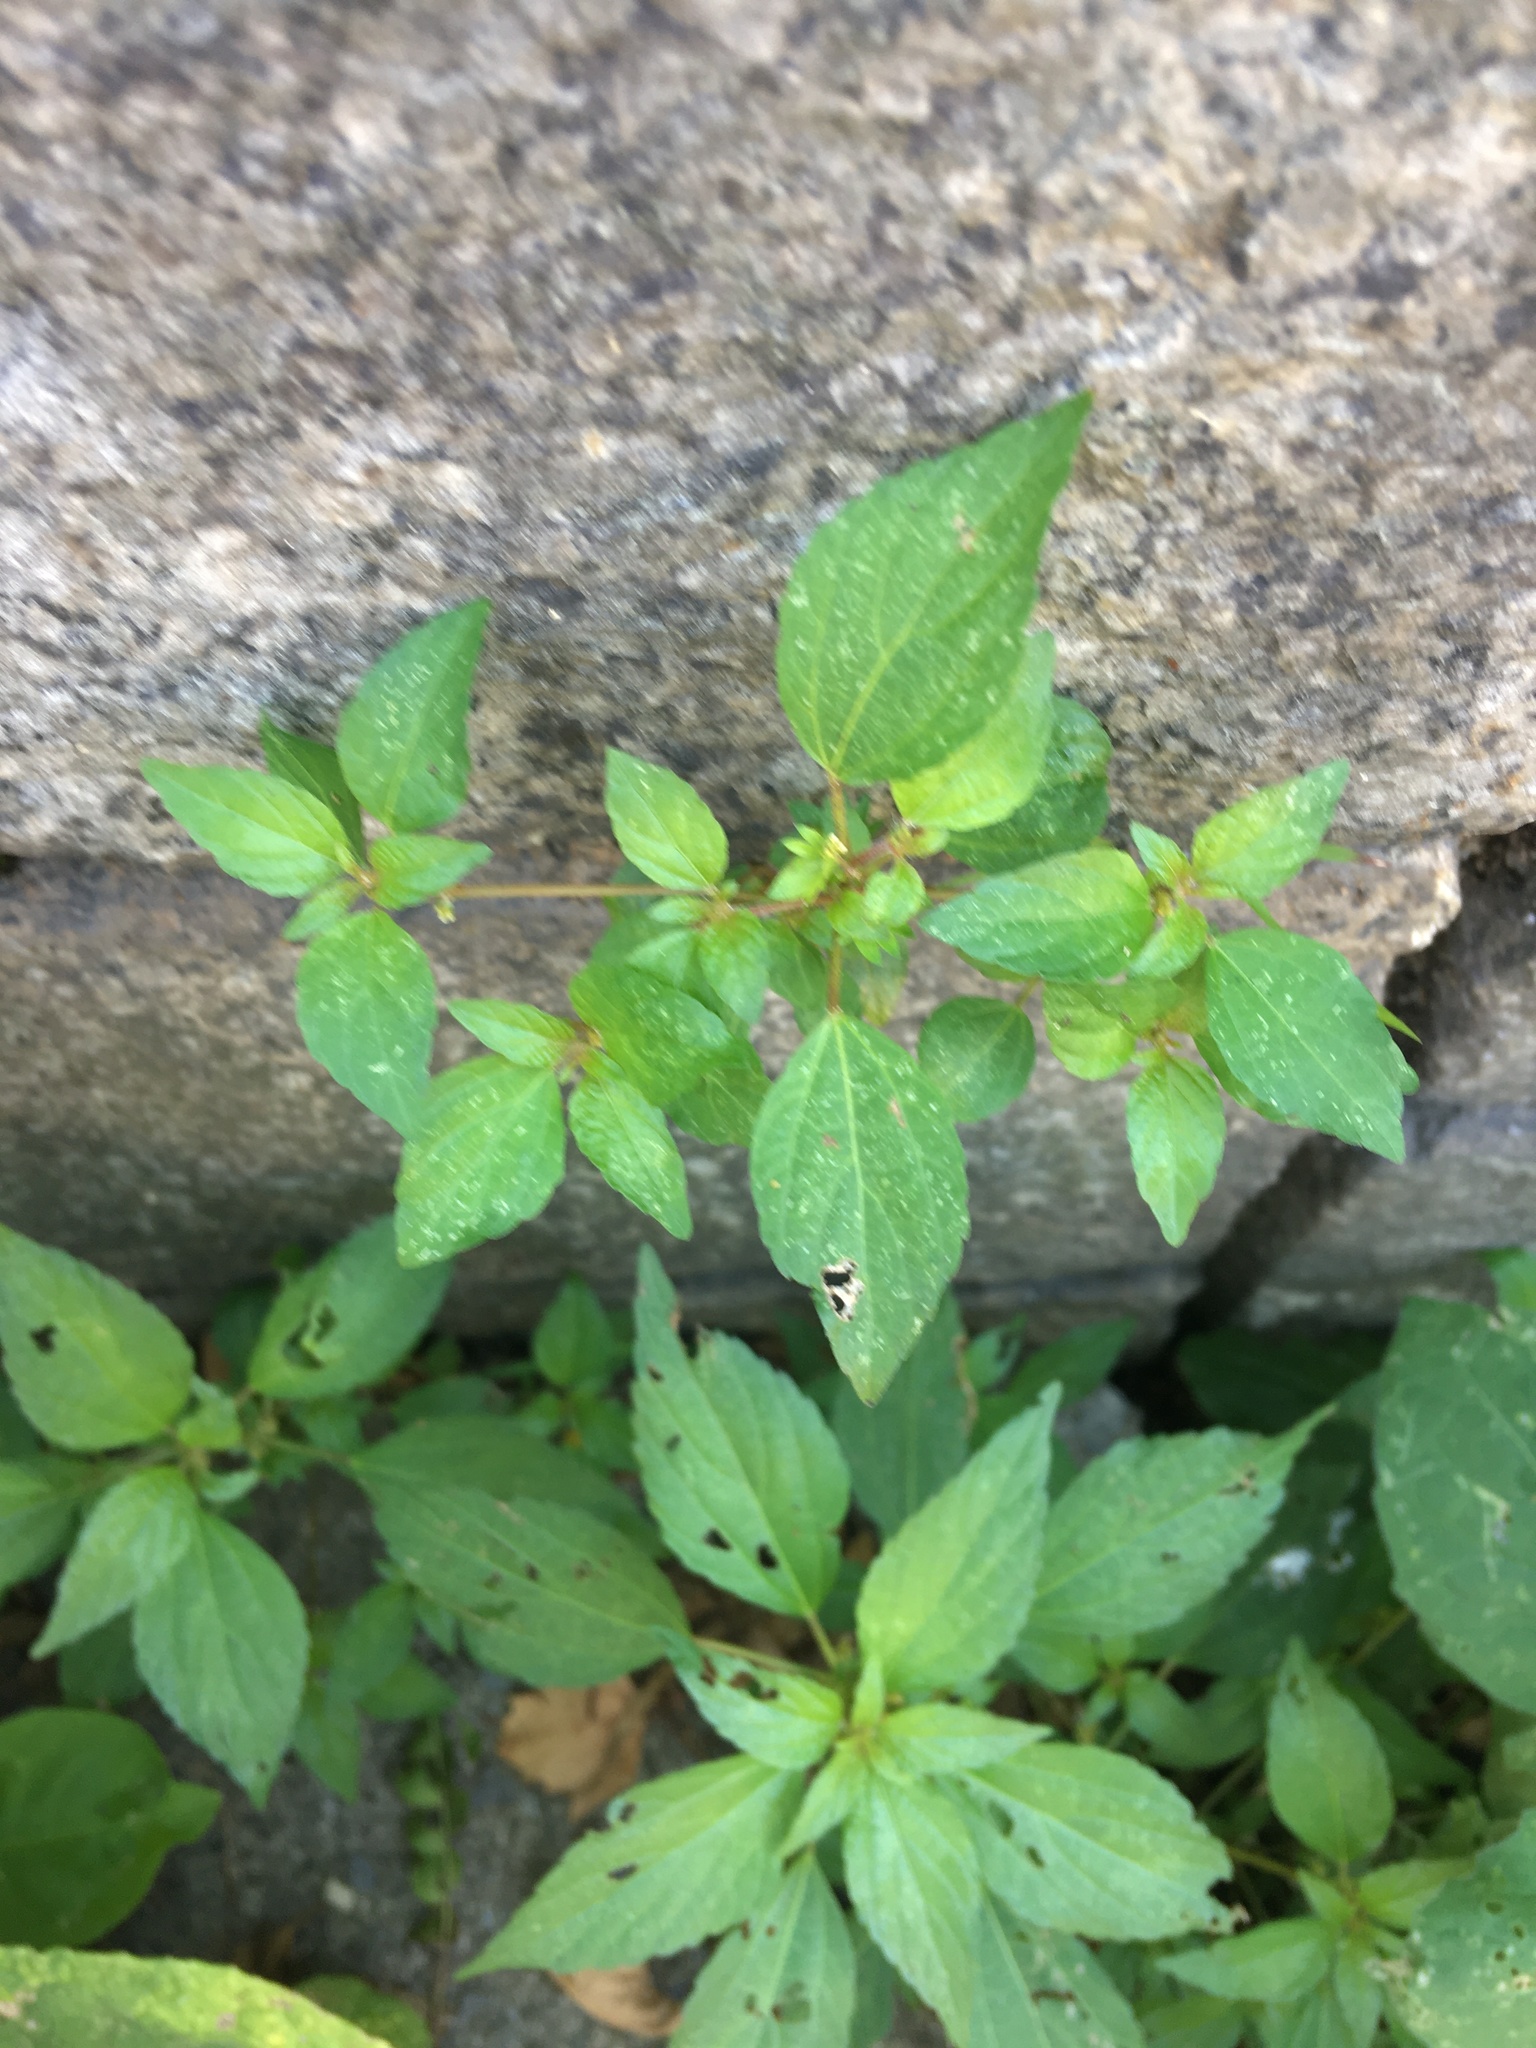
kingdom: Plantae
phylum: Tracheophyta
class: Magnoliopsida
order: Malpighiales
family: Euphorbiaceae
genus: Acalypha
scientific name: Acalypha rhomboidea
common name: Rhombic copperleaf
